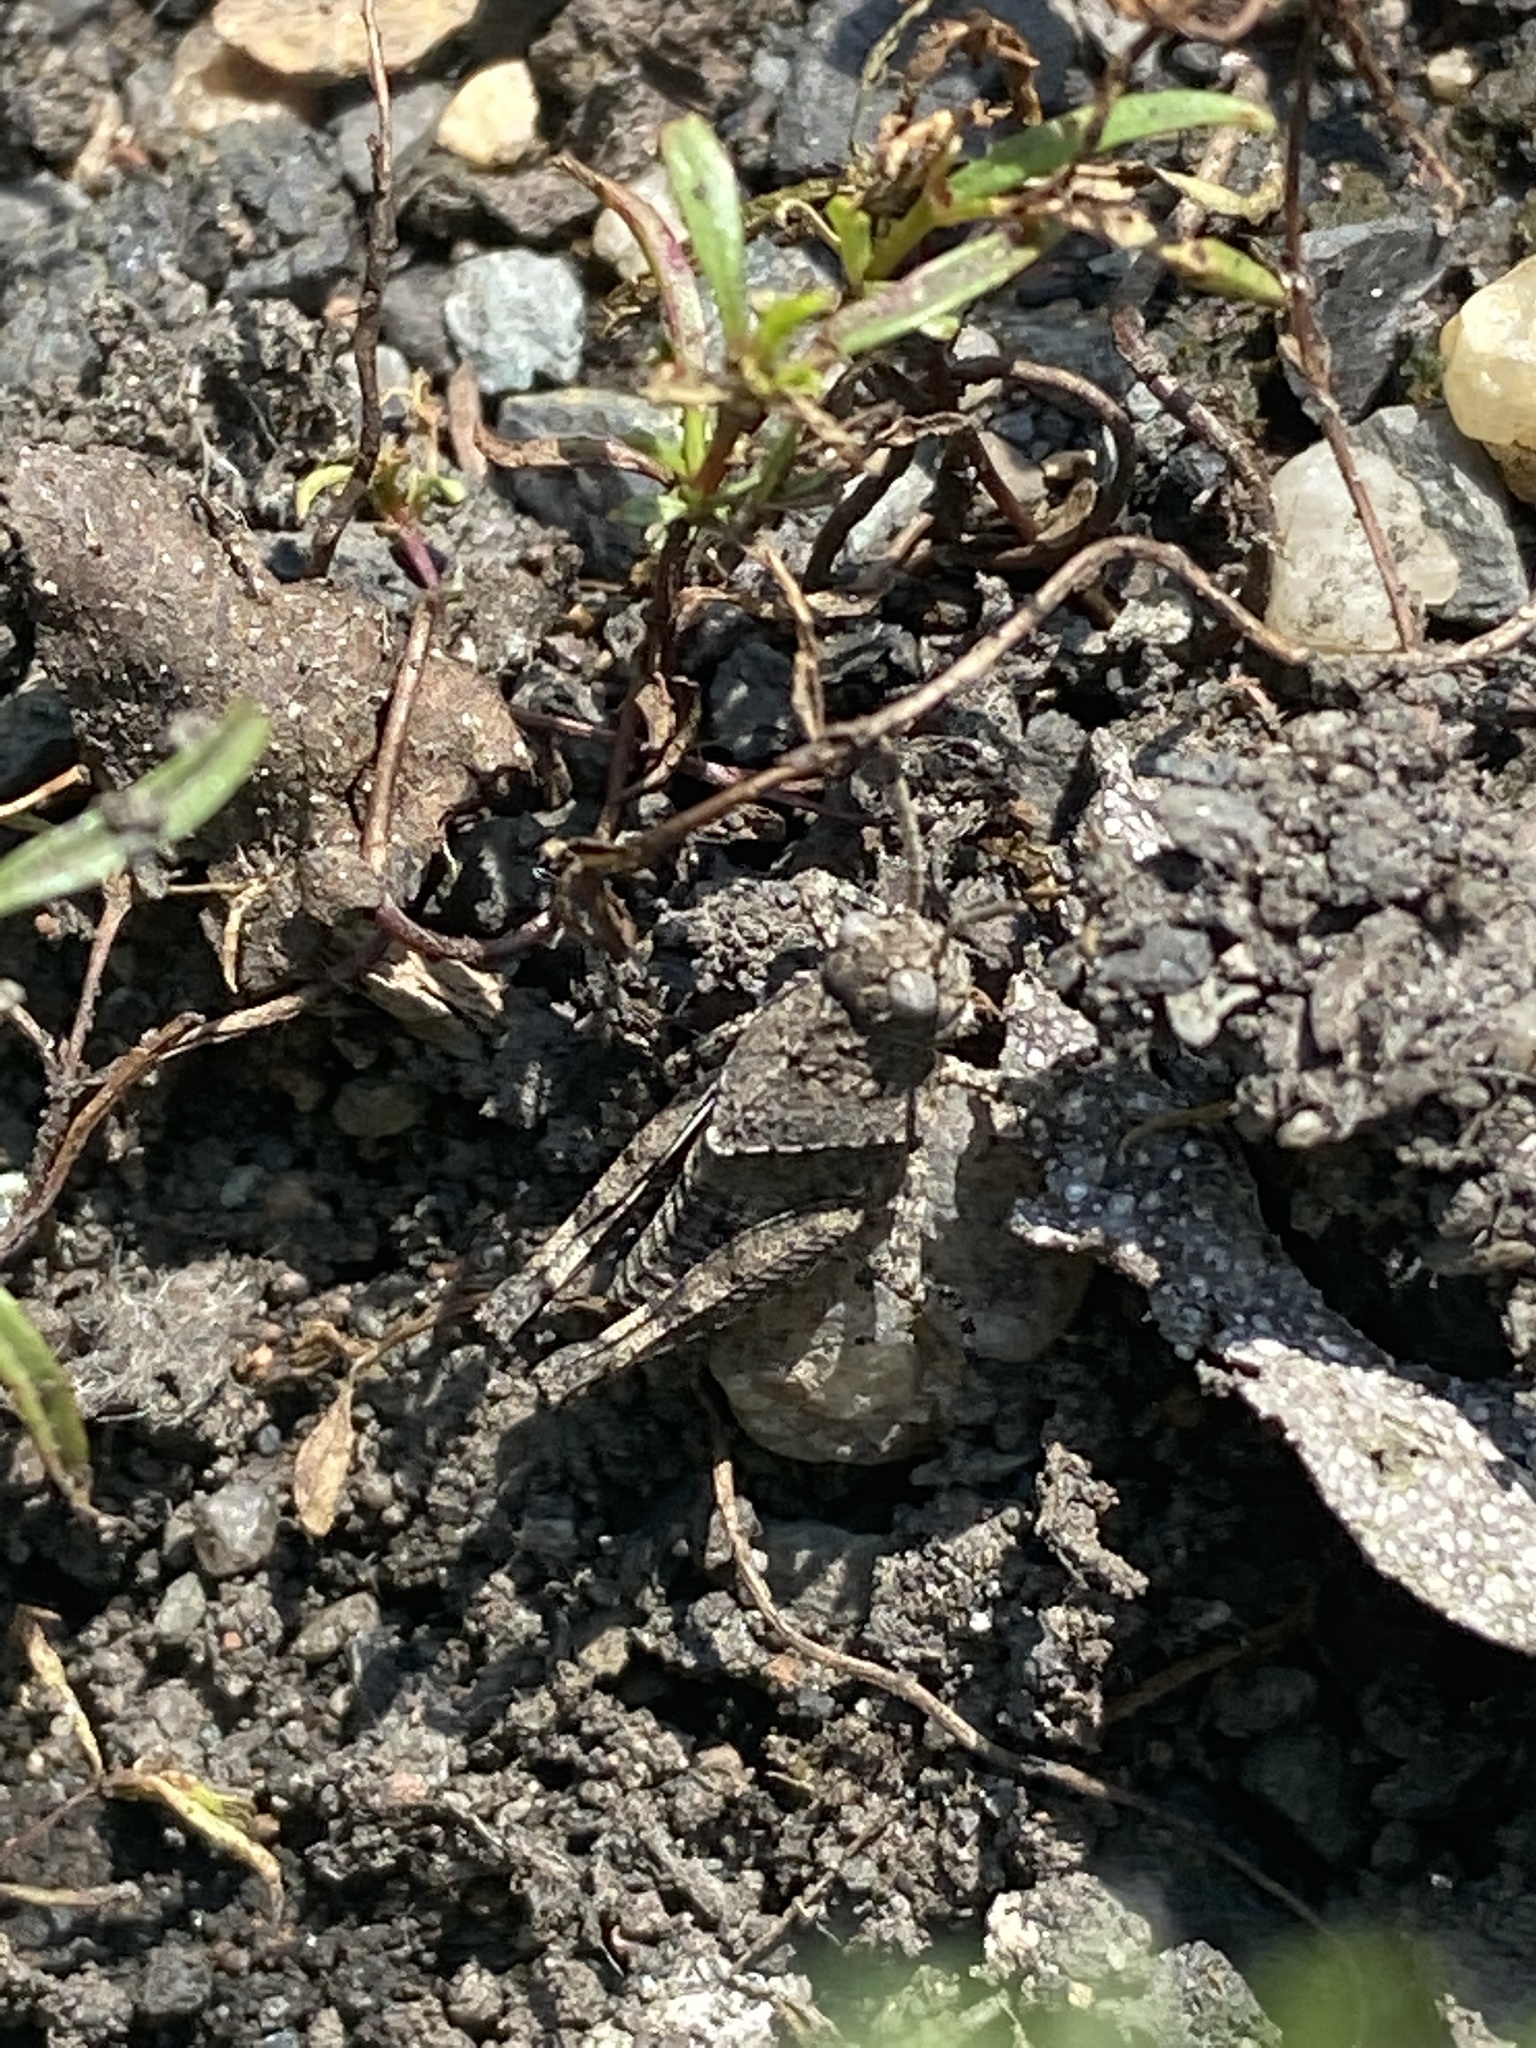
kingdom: Animalia
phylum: Arthropoda
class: Insecta
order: Orthoptera
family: Acrididae
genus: Oedipoda
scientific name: Oedipoda caerulescens
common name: Blue-winged grasshopper
